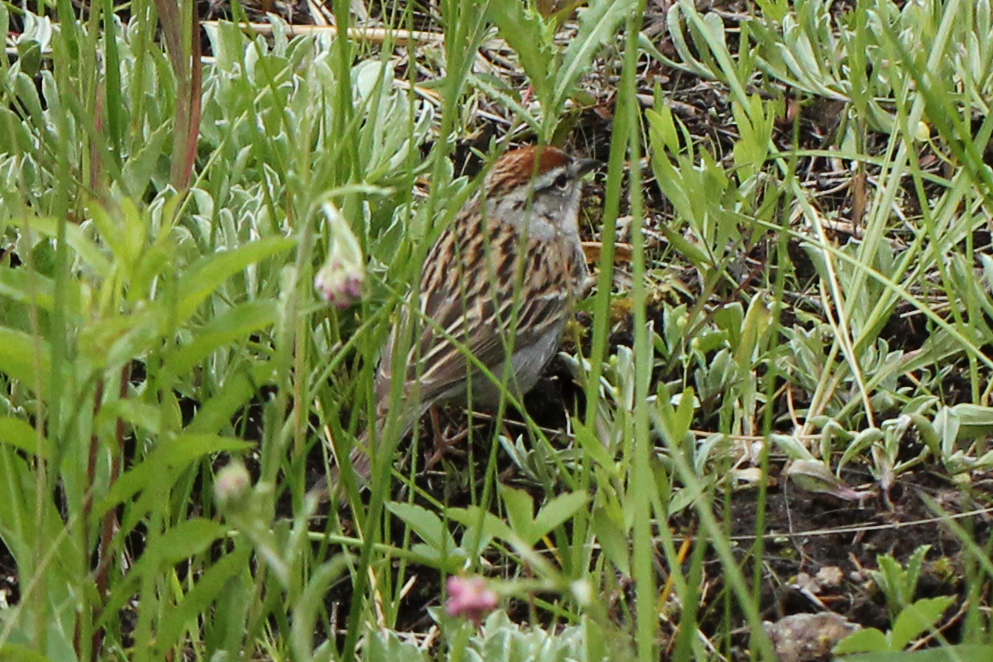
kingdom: Animalia
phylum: Chordata
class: Aves
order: Passeriformes
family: Passerellidae
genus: Spizella
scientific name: Spizella passerina
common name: Chipping sparrow
